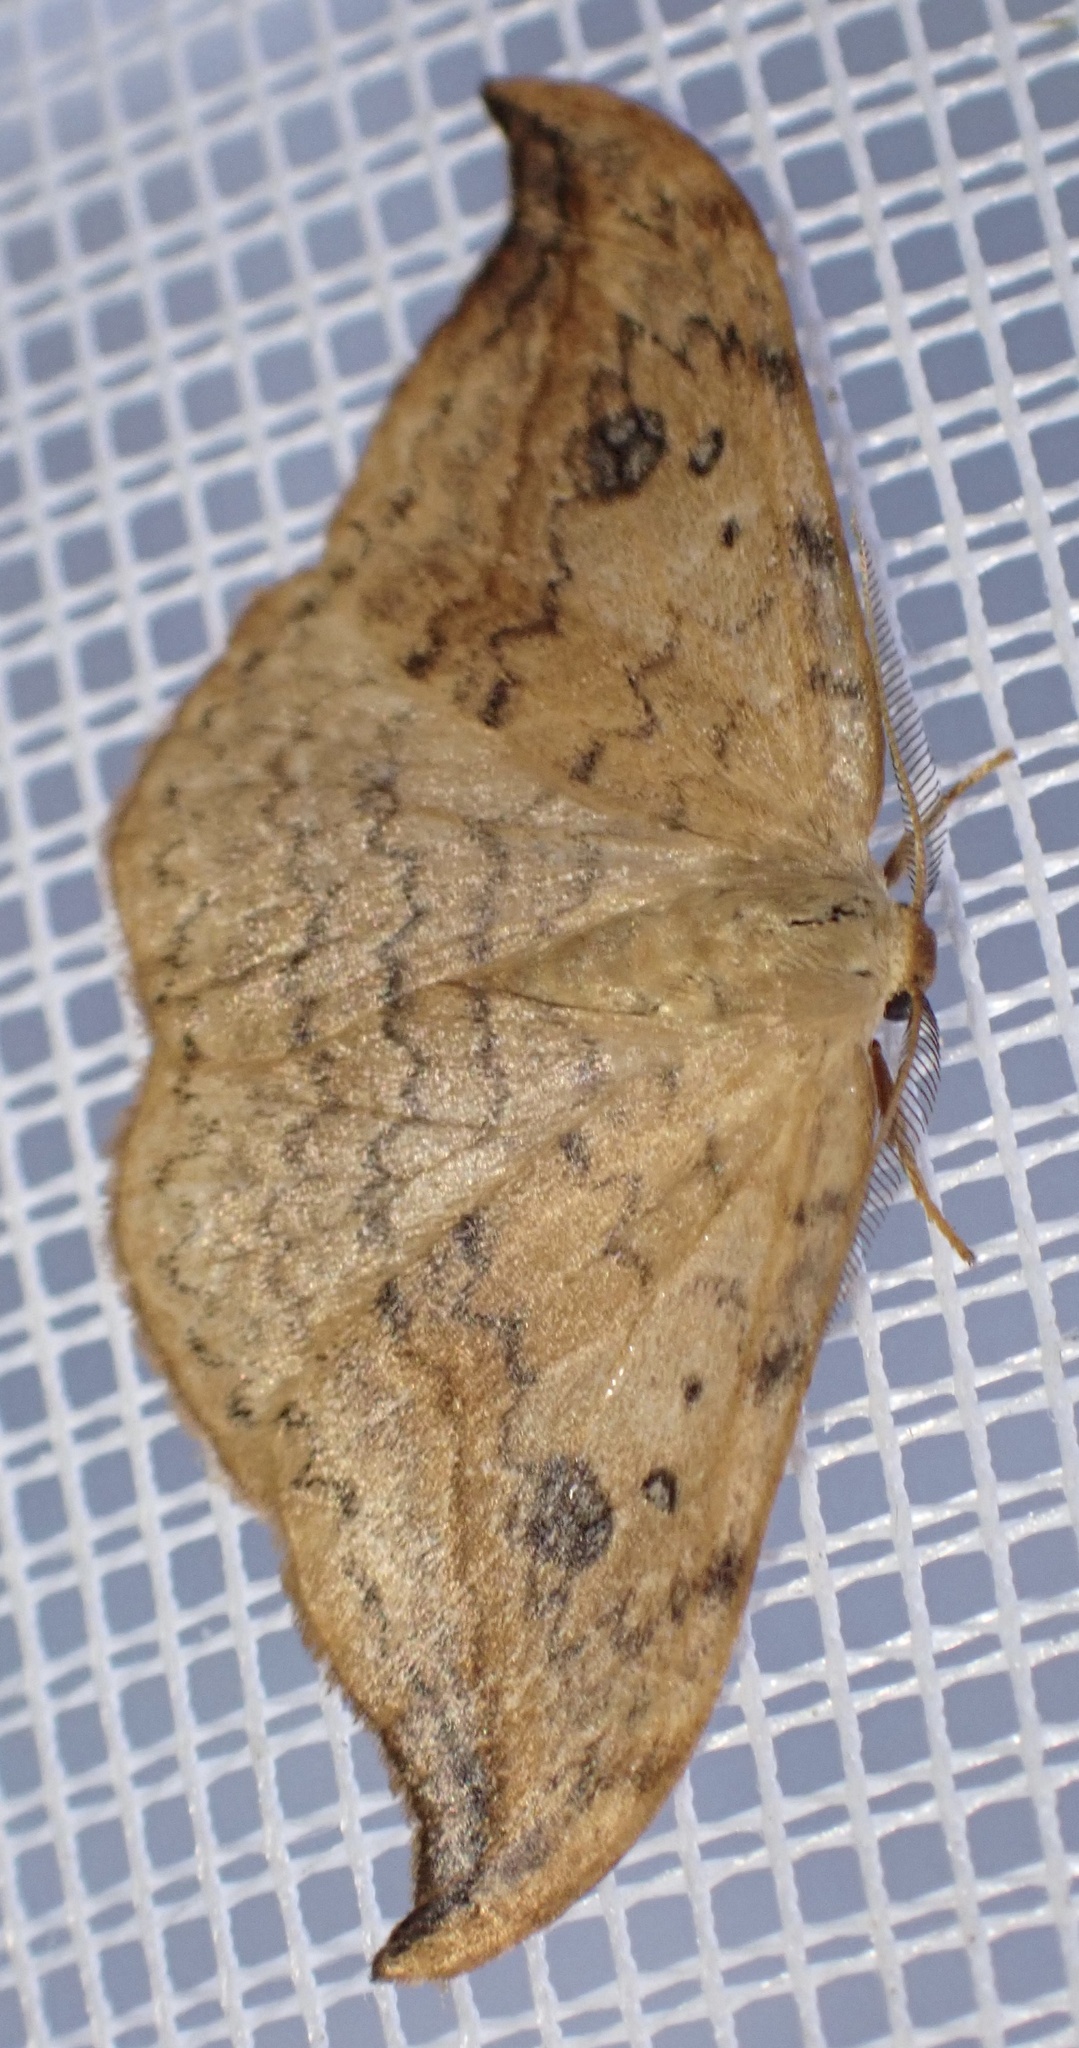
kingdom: Animalia
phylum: Arthropoda
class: Insecta
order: Lepidoptera
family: Drepanidae
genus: Drepana
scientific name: Drepana falcataria
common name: Pebble hook-tip
